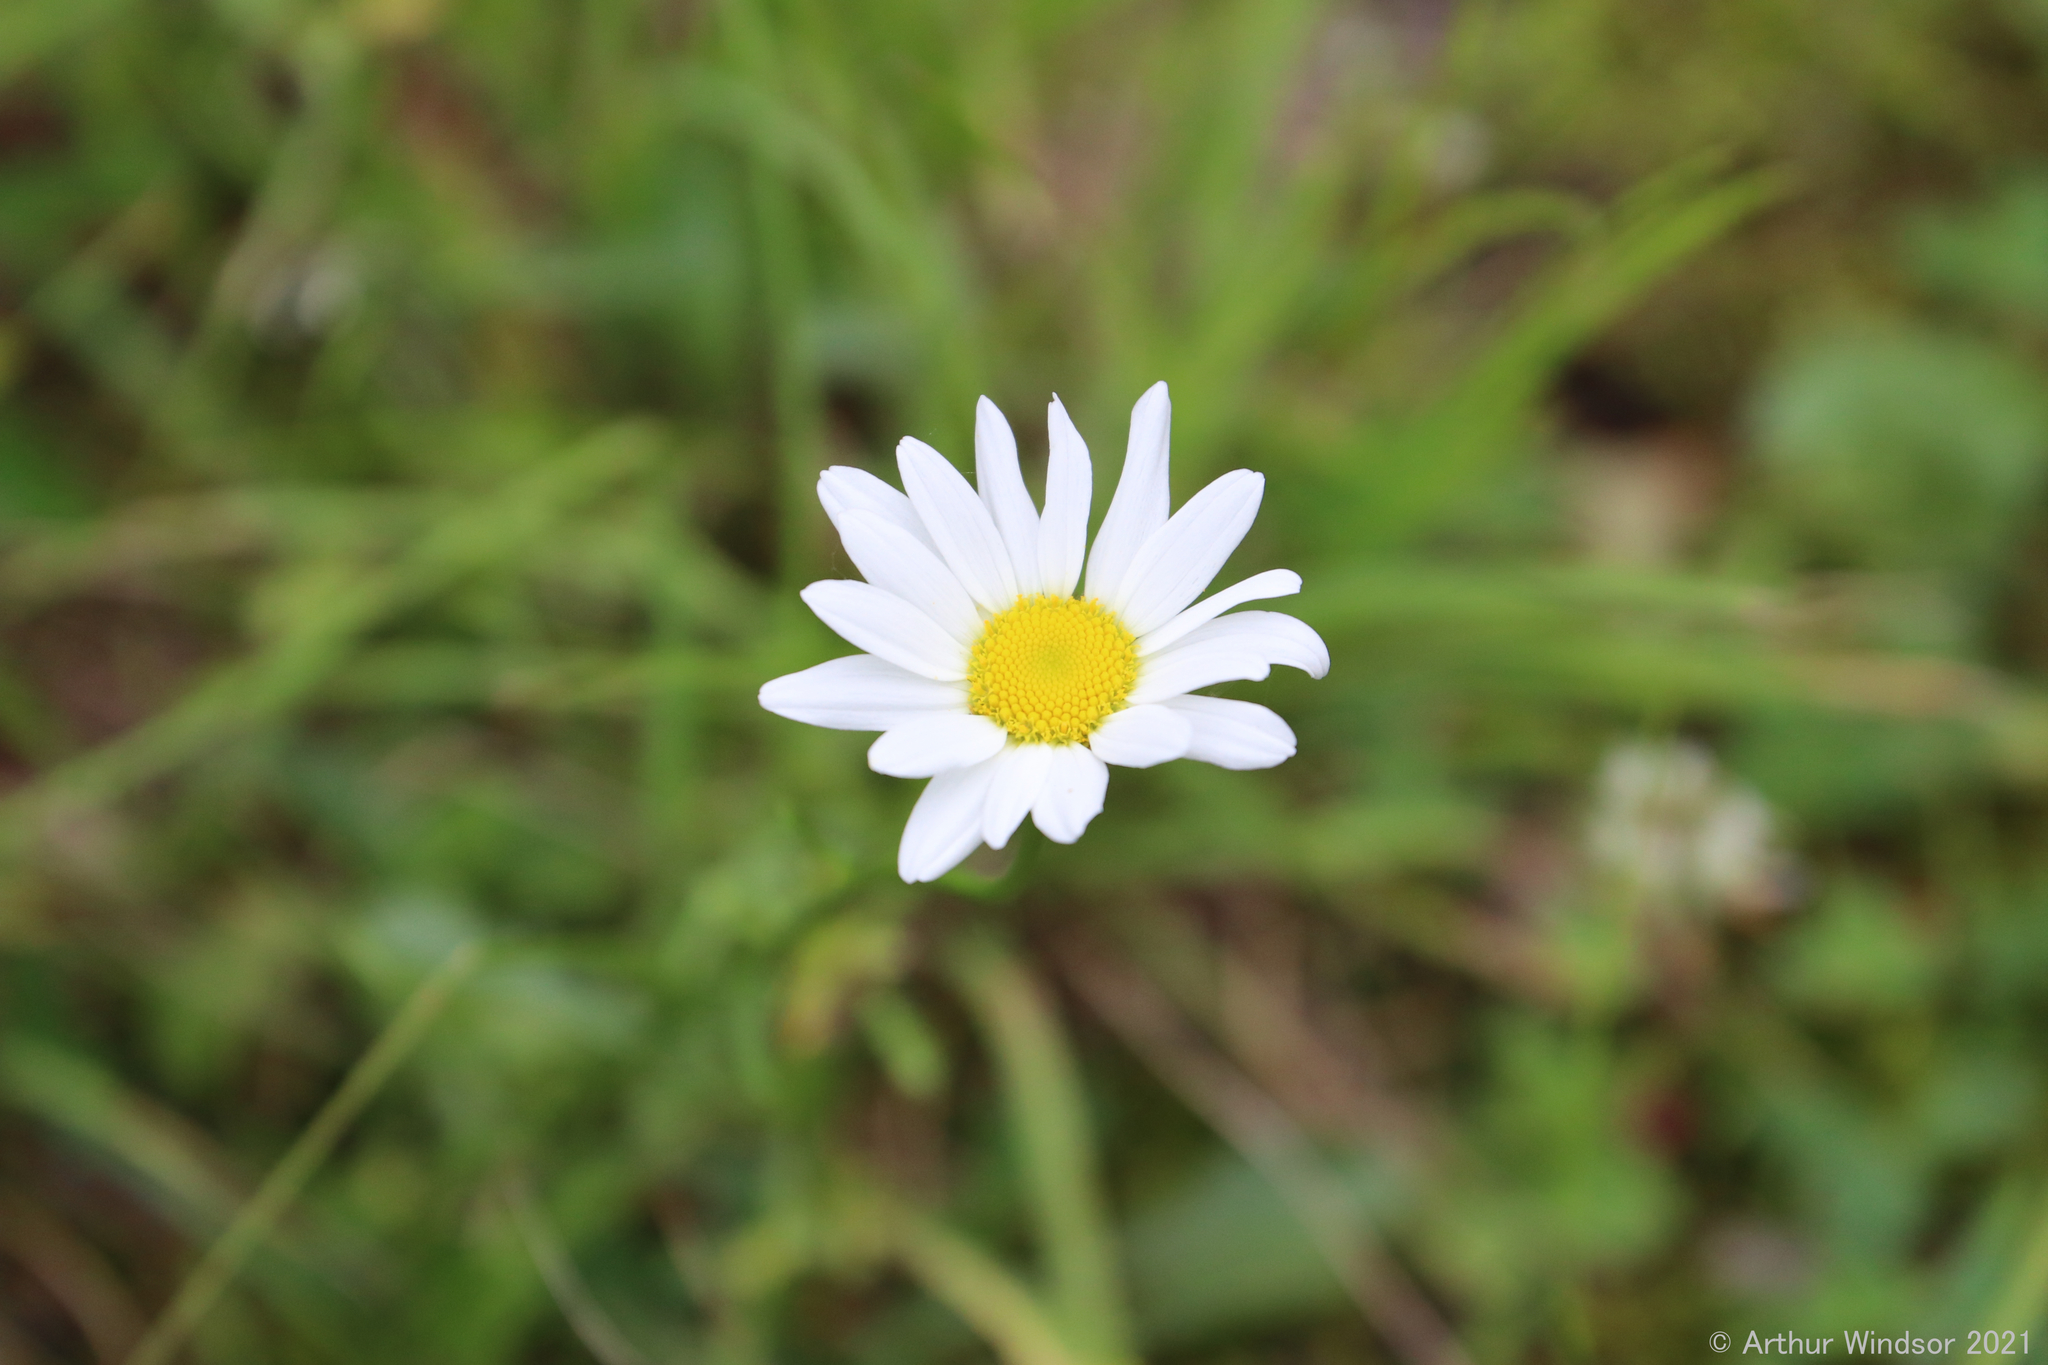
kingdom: Plantae
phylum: Tracheophyta
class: Magnoliopsida
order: Asterales
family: Asteraceae
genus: Leucanthemum
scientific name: Leucanthemum vulgare
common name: Oxeye daisy
